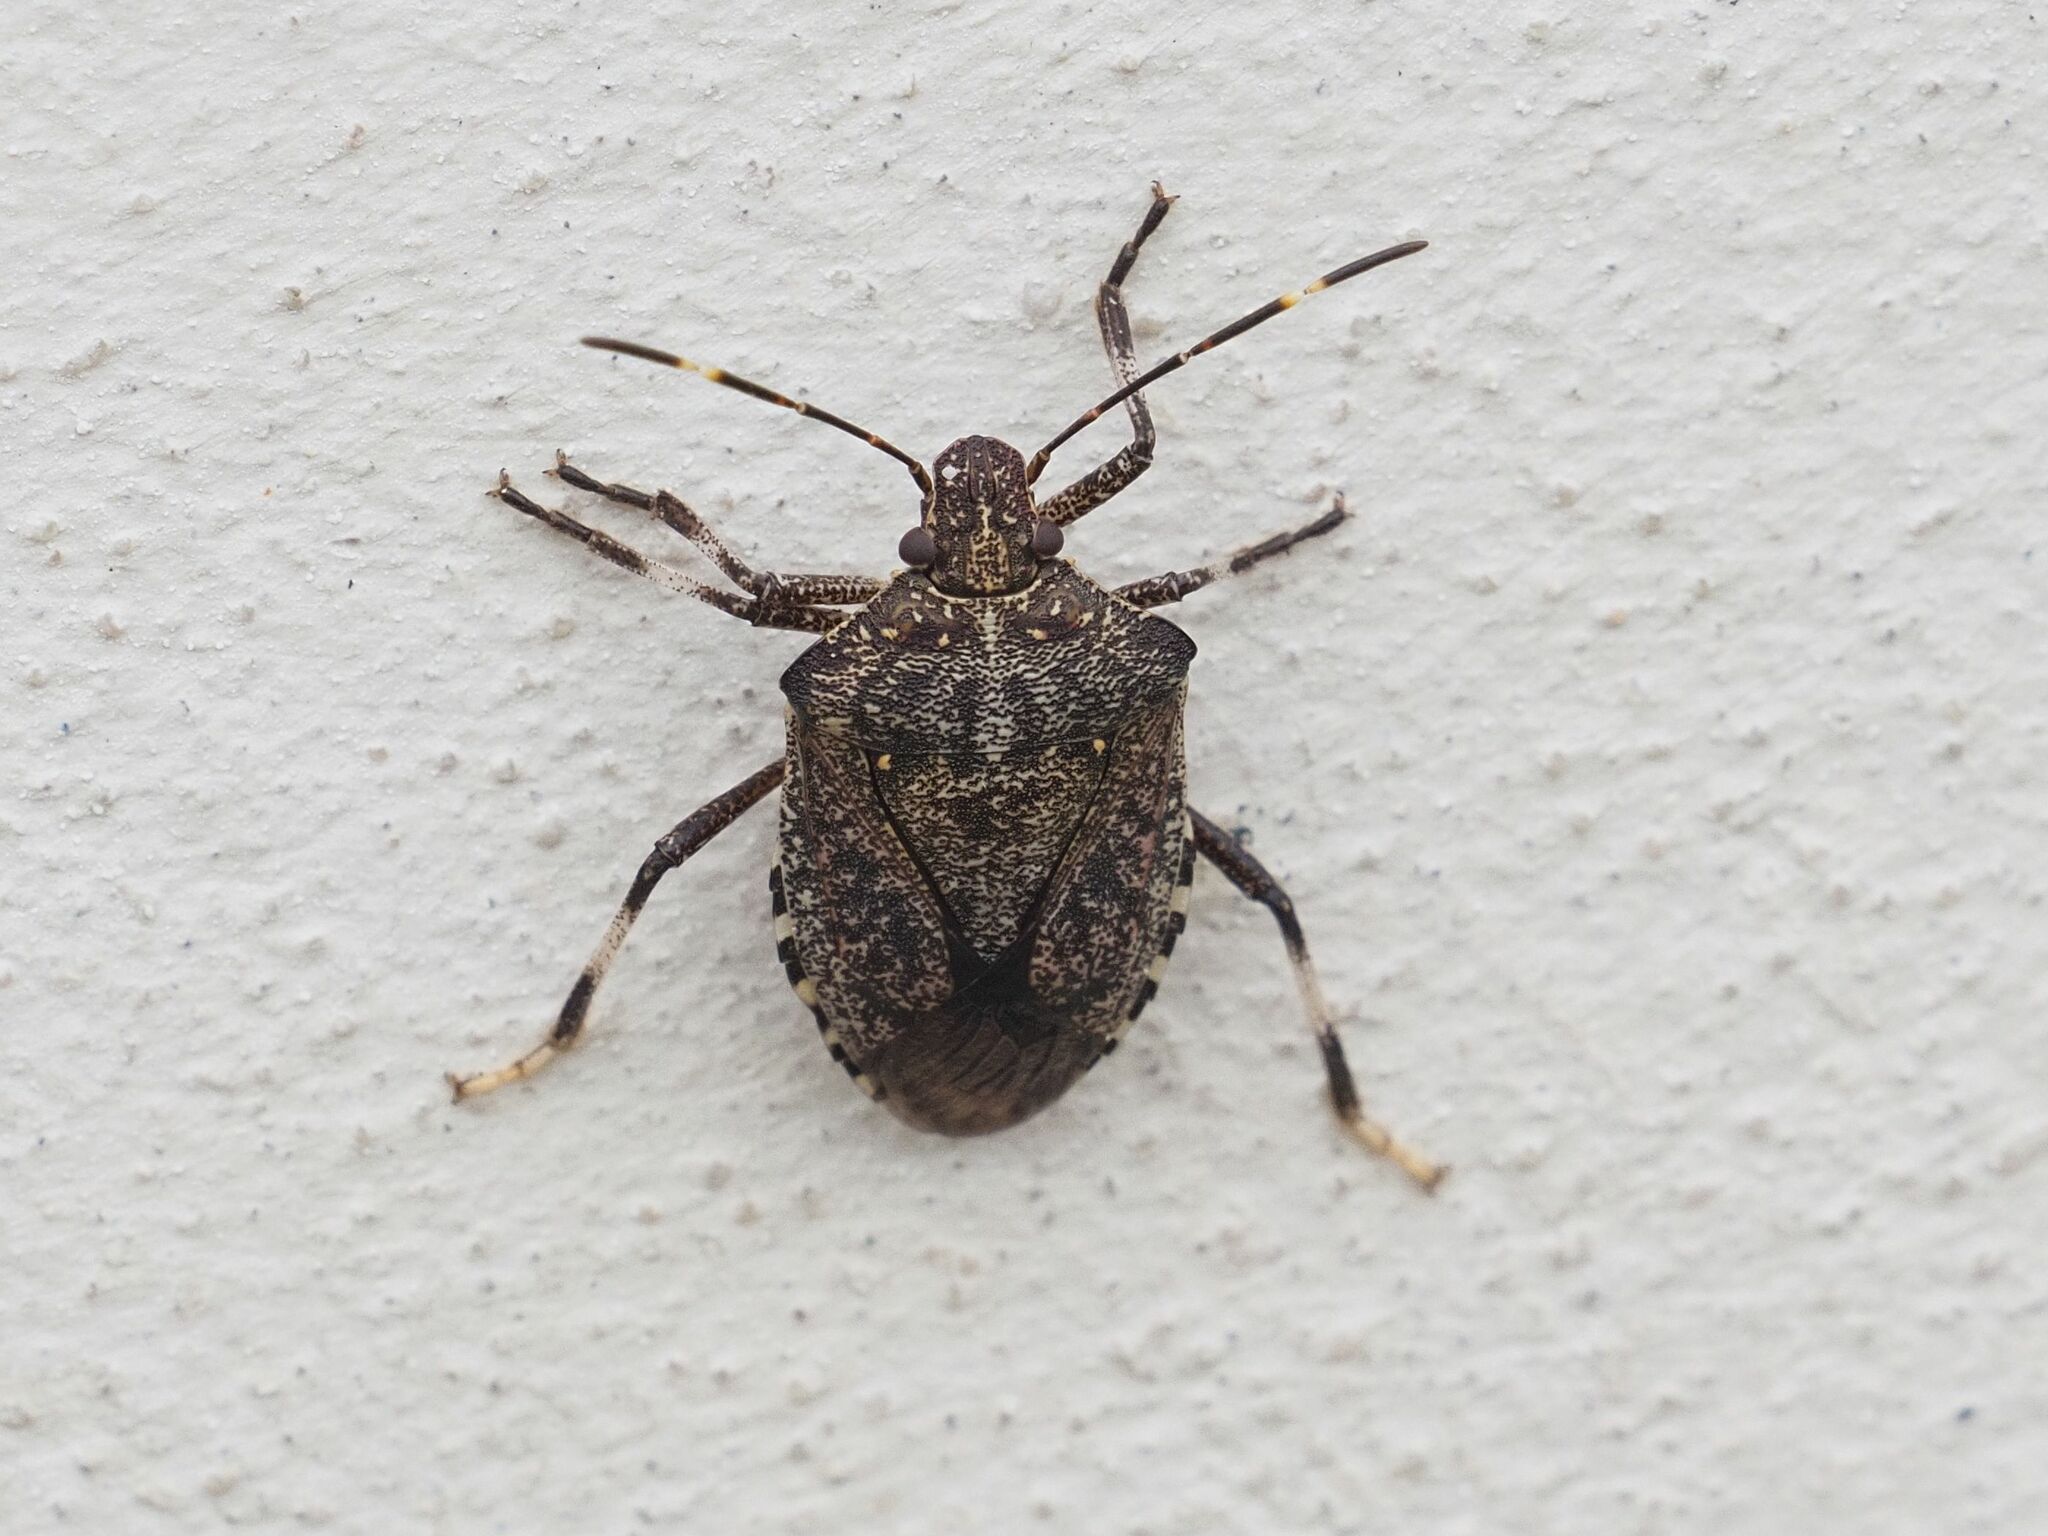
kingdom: Animalia
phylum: Arthropoda
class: Insecta
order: Hemiptera
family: Pentatomidae
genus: Halyomorpha
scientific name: Halyomorpha halys
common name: Brown marmorated stink bug
